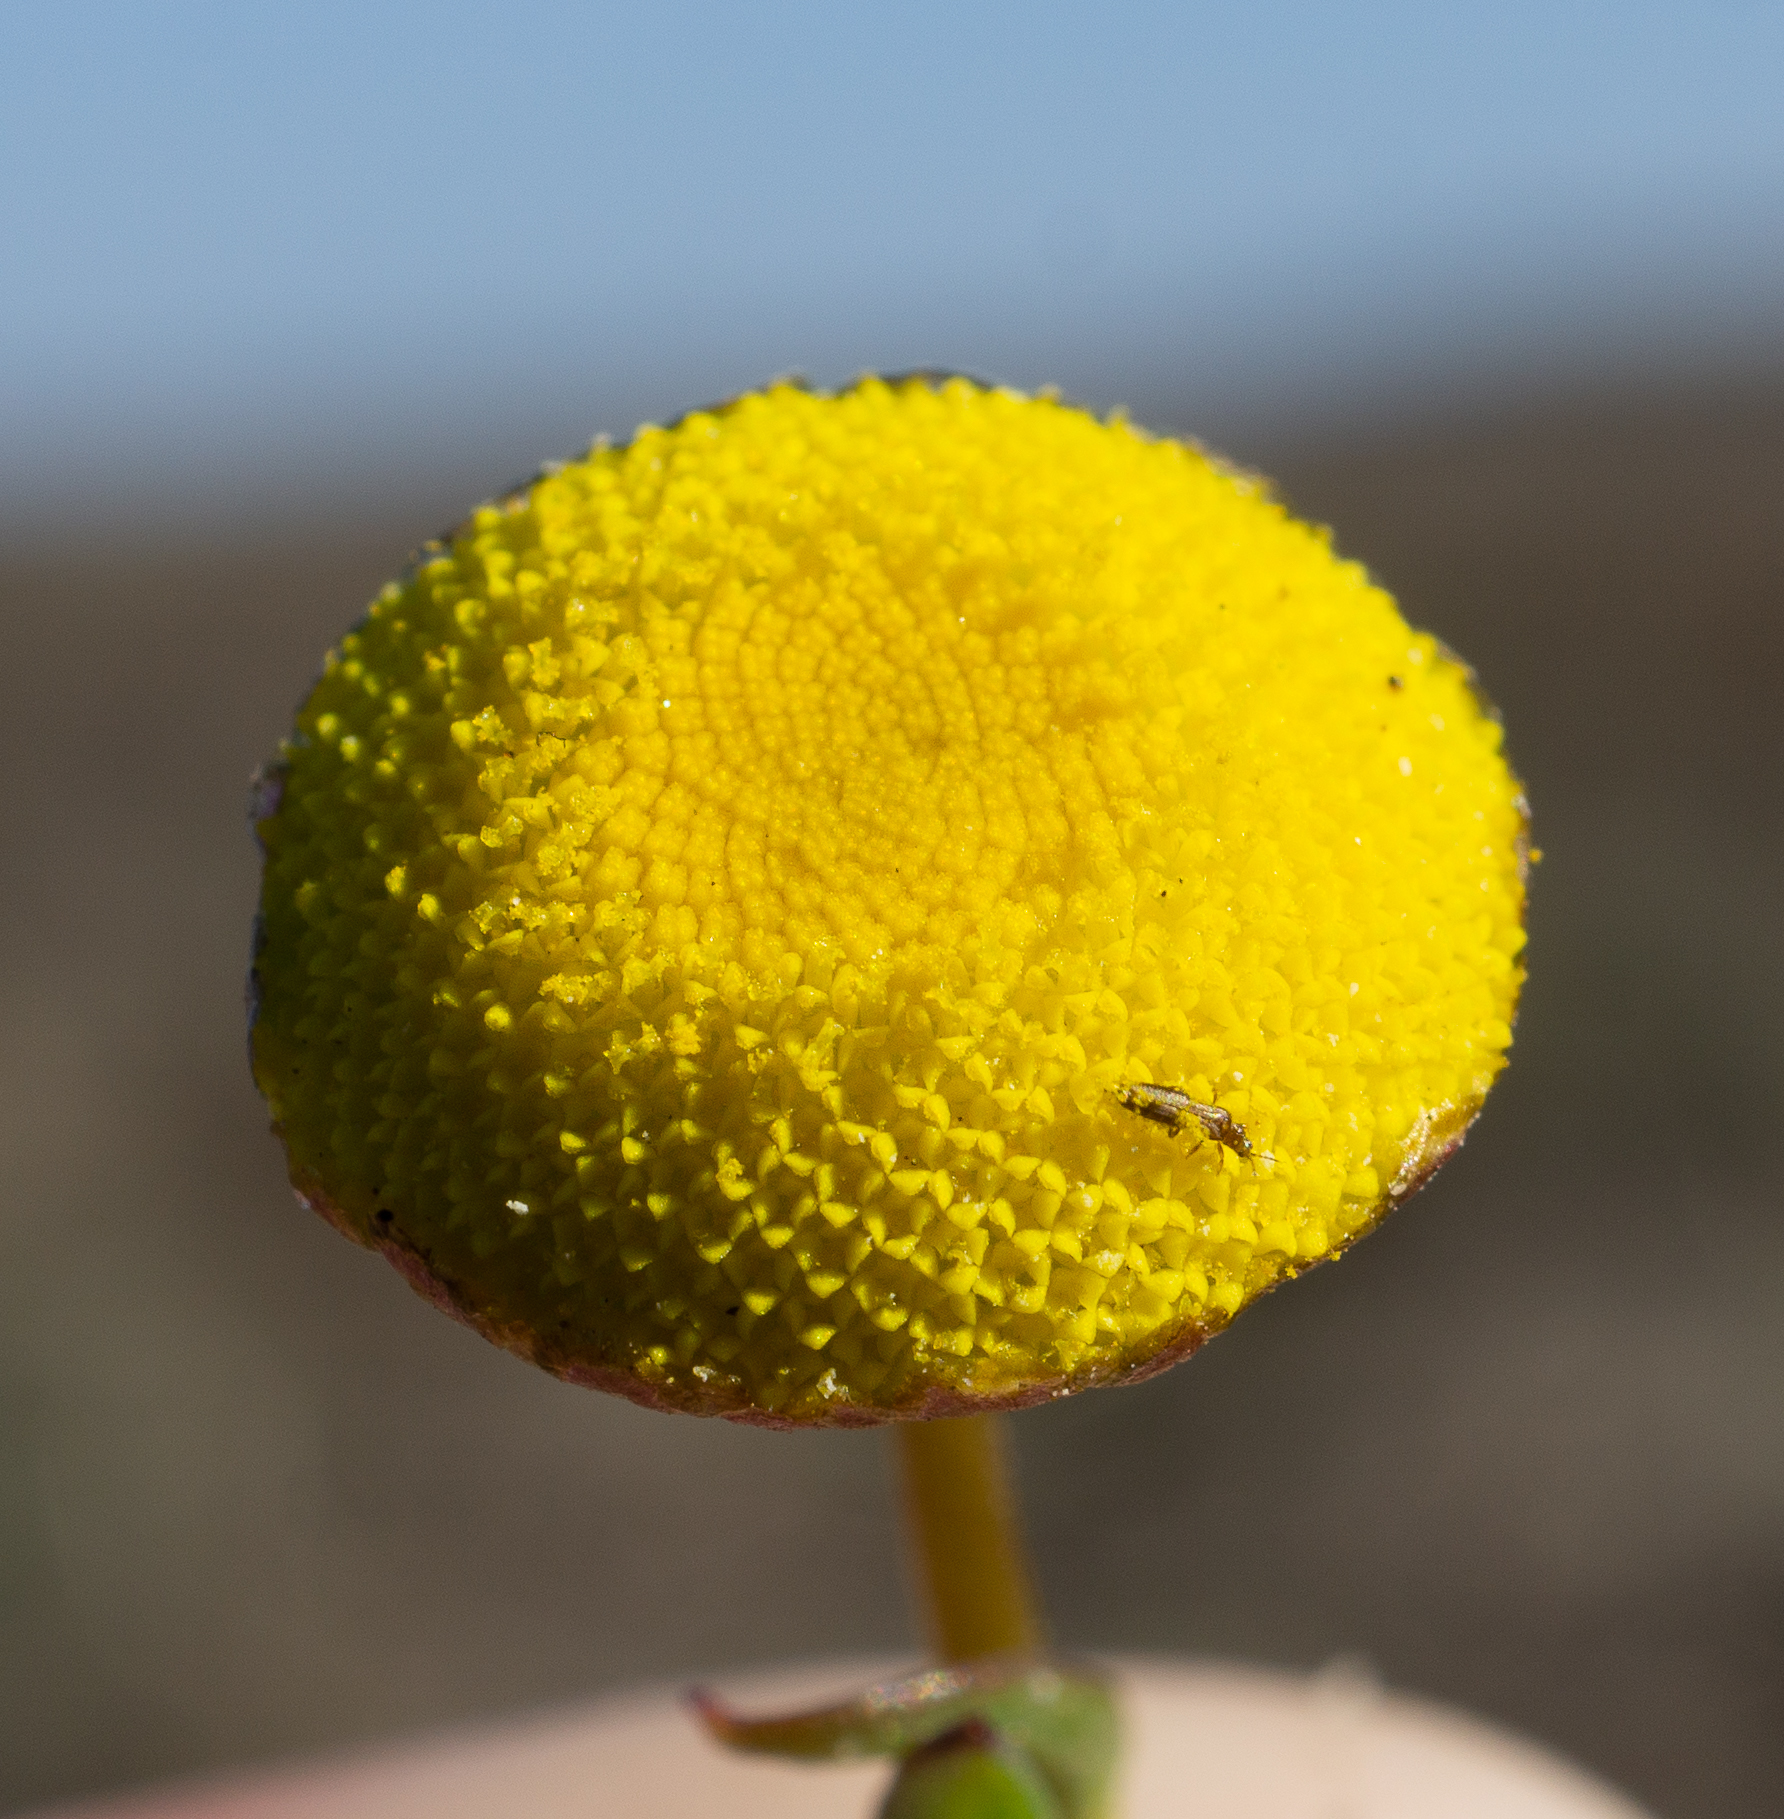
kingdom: Plantae
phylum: Tracheophyta
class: Magnoliopsida
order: Asterales
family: Asteraceae
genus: Cotula
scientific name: Cotula coronopifolia
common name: Buttonweed
